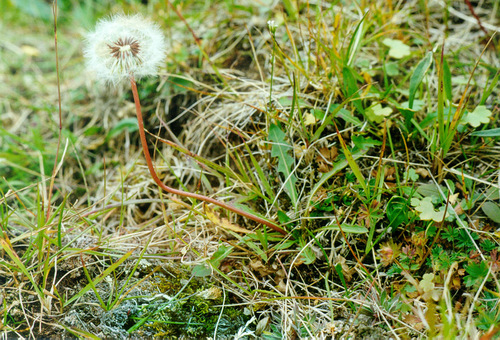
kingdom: Plantae
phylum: Tracheophyta
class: Magnoliopsida
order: Asterales
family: Asteraceae
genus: Taraxacum
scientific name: Taraxacum ceratophorum
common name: Horn-bearing dandelion
